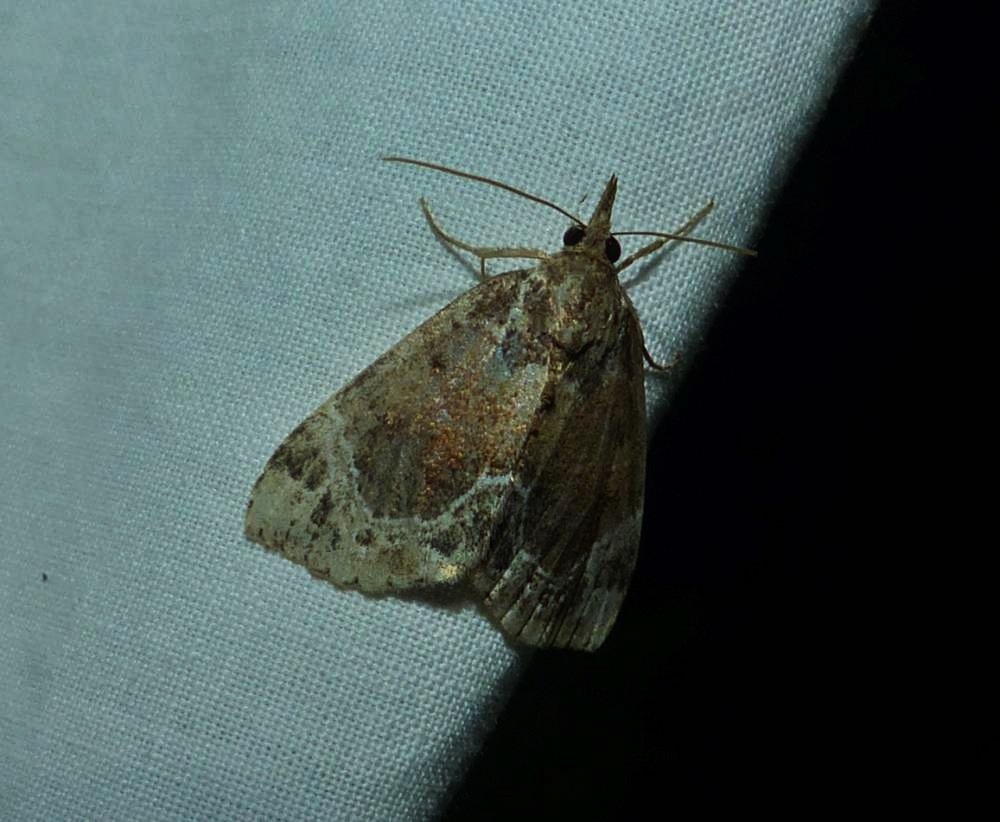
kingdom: Animalia
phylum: Arthropoda
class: Insecta
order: Lepidoptera
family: Erebidae
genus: Hypena
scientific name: Hypena abalienalis
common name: White-lined snout
